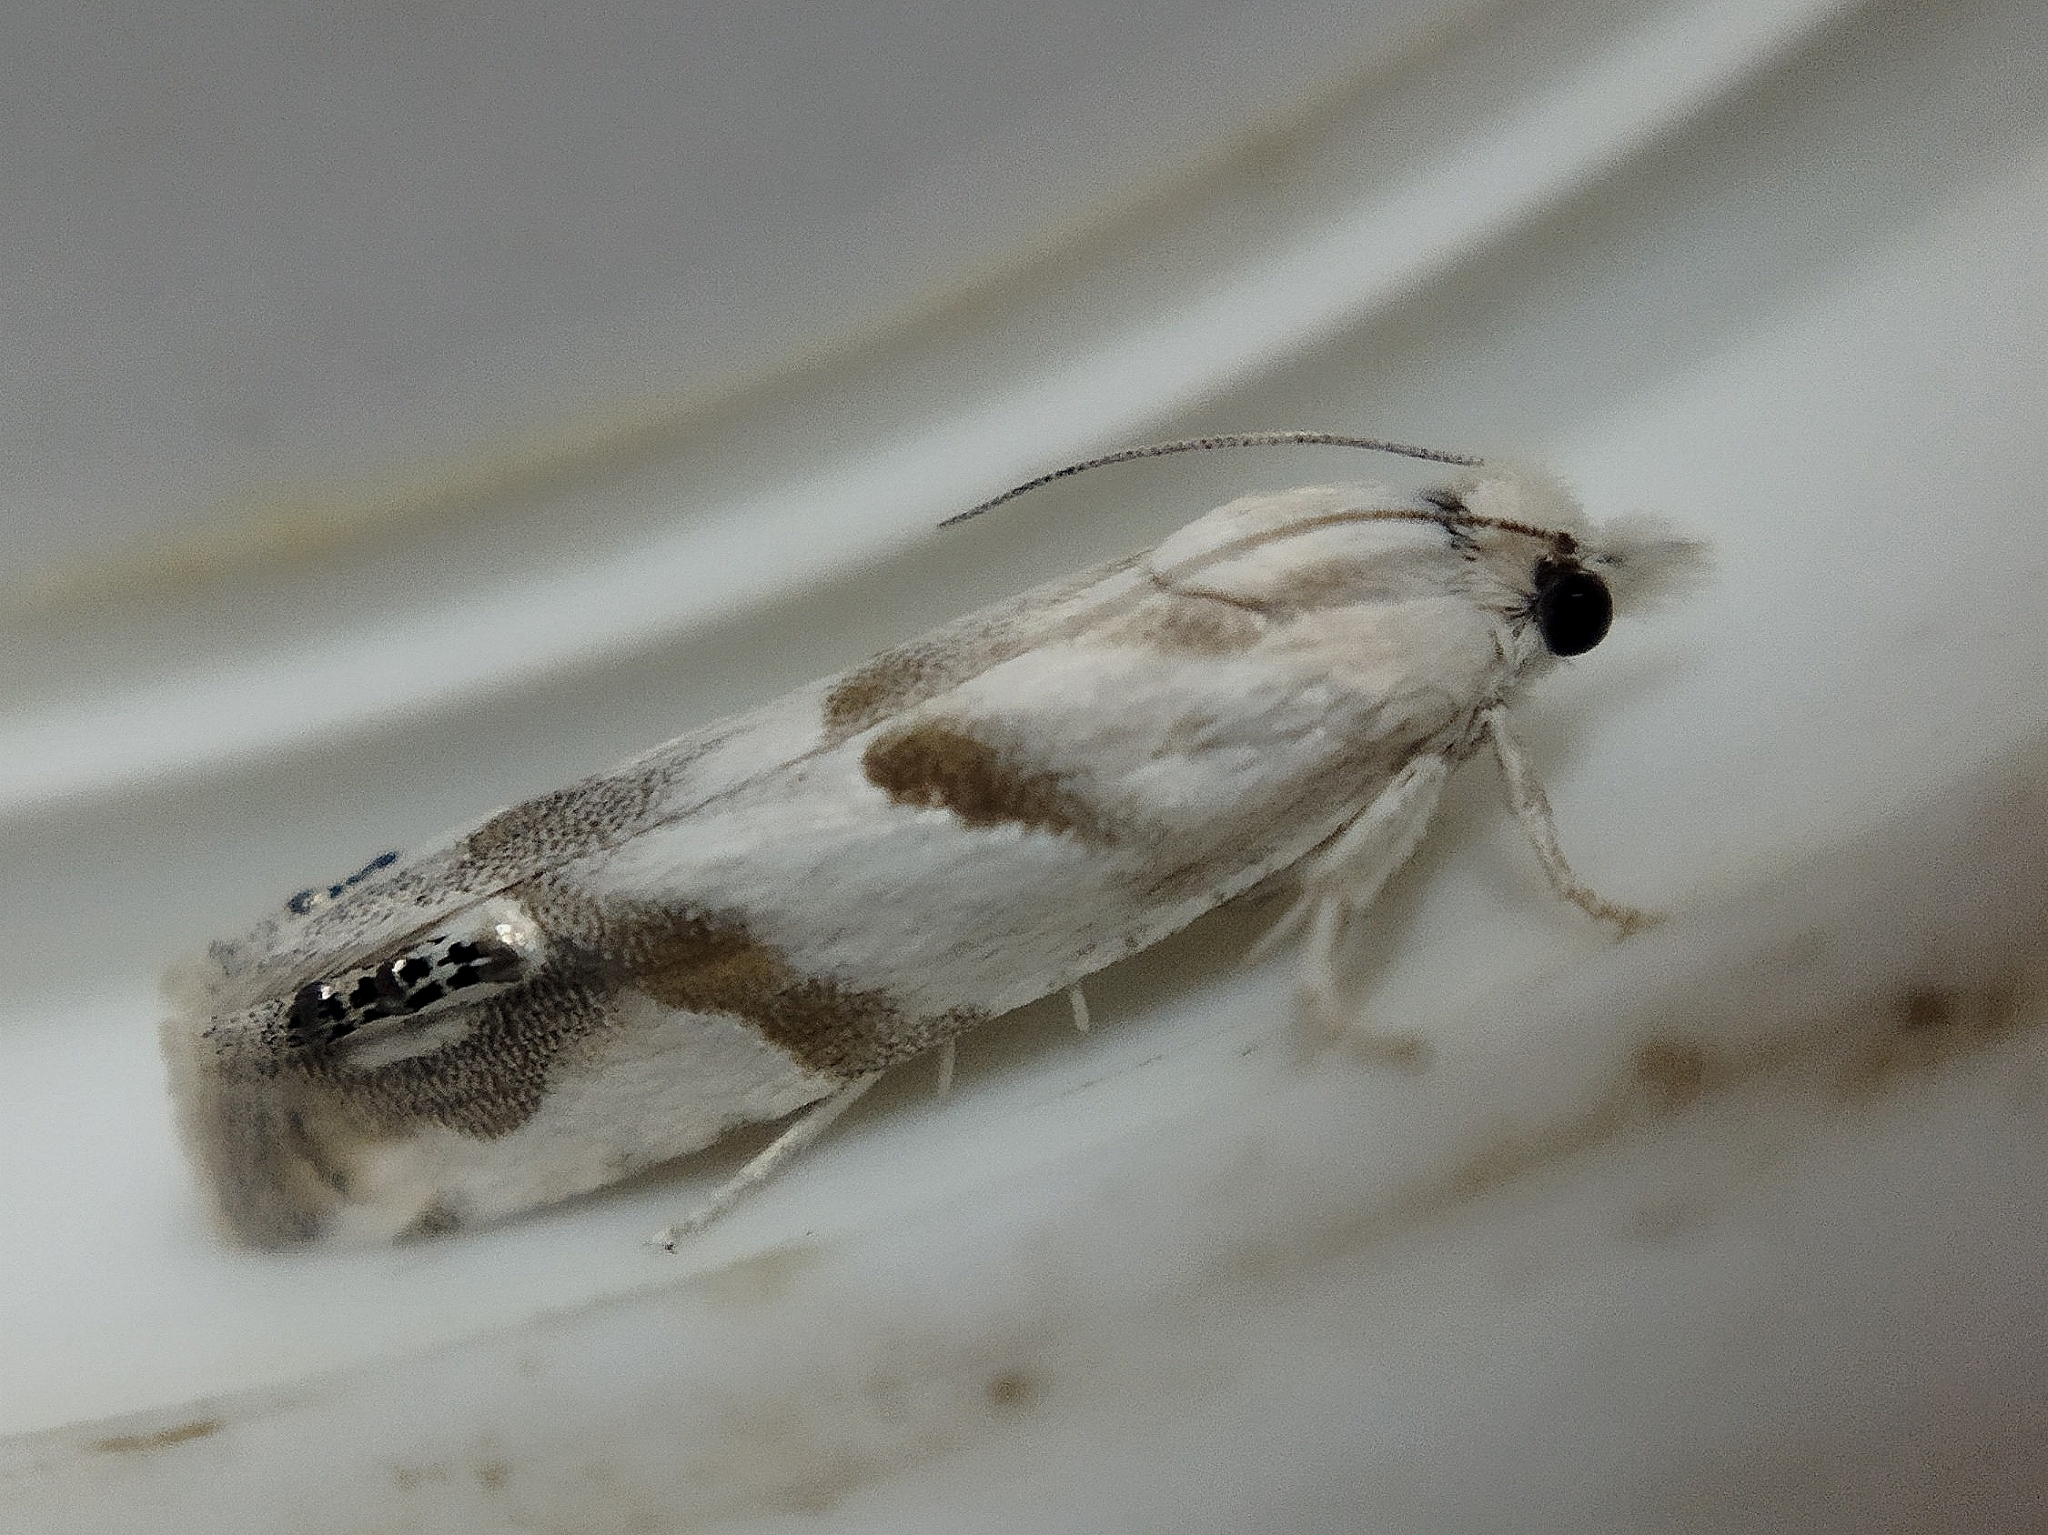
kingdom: Animalia
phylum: Arthropoda
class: Insecta
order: Lepidoptera
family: Tortricidae
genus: Eucosma
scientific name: Eucosma pupillana
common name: Eyed bell
